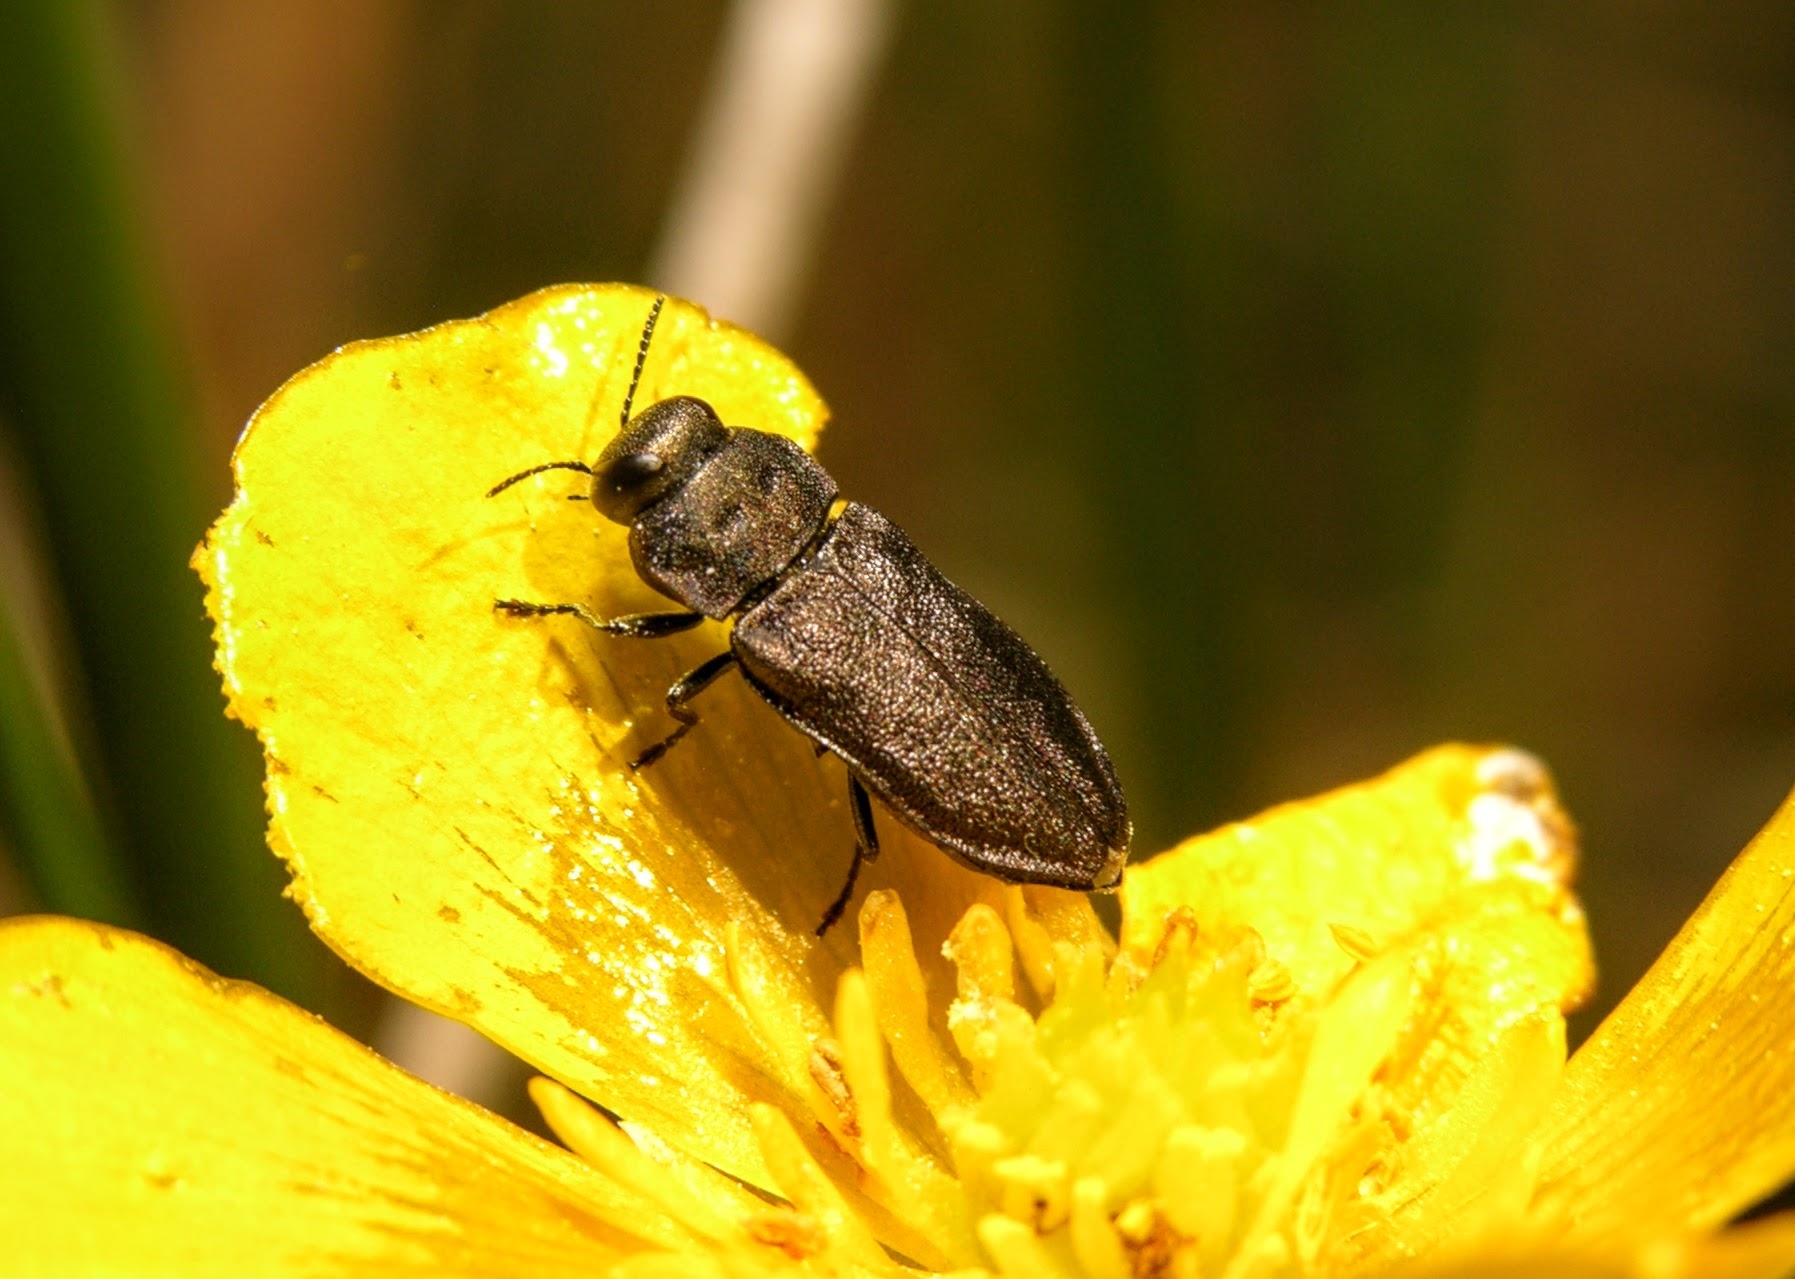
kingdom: Animalia
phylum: Arthropoda
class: Insecta
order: Coleoptera
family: Buprestidae
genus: Anthaxia
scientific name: Anthaxia quadripunctata
